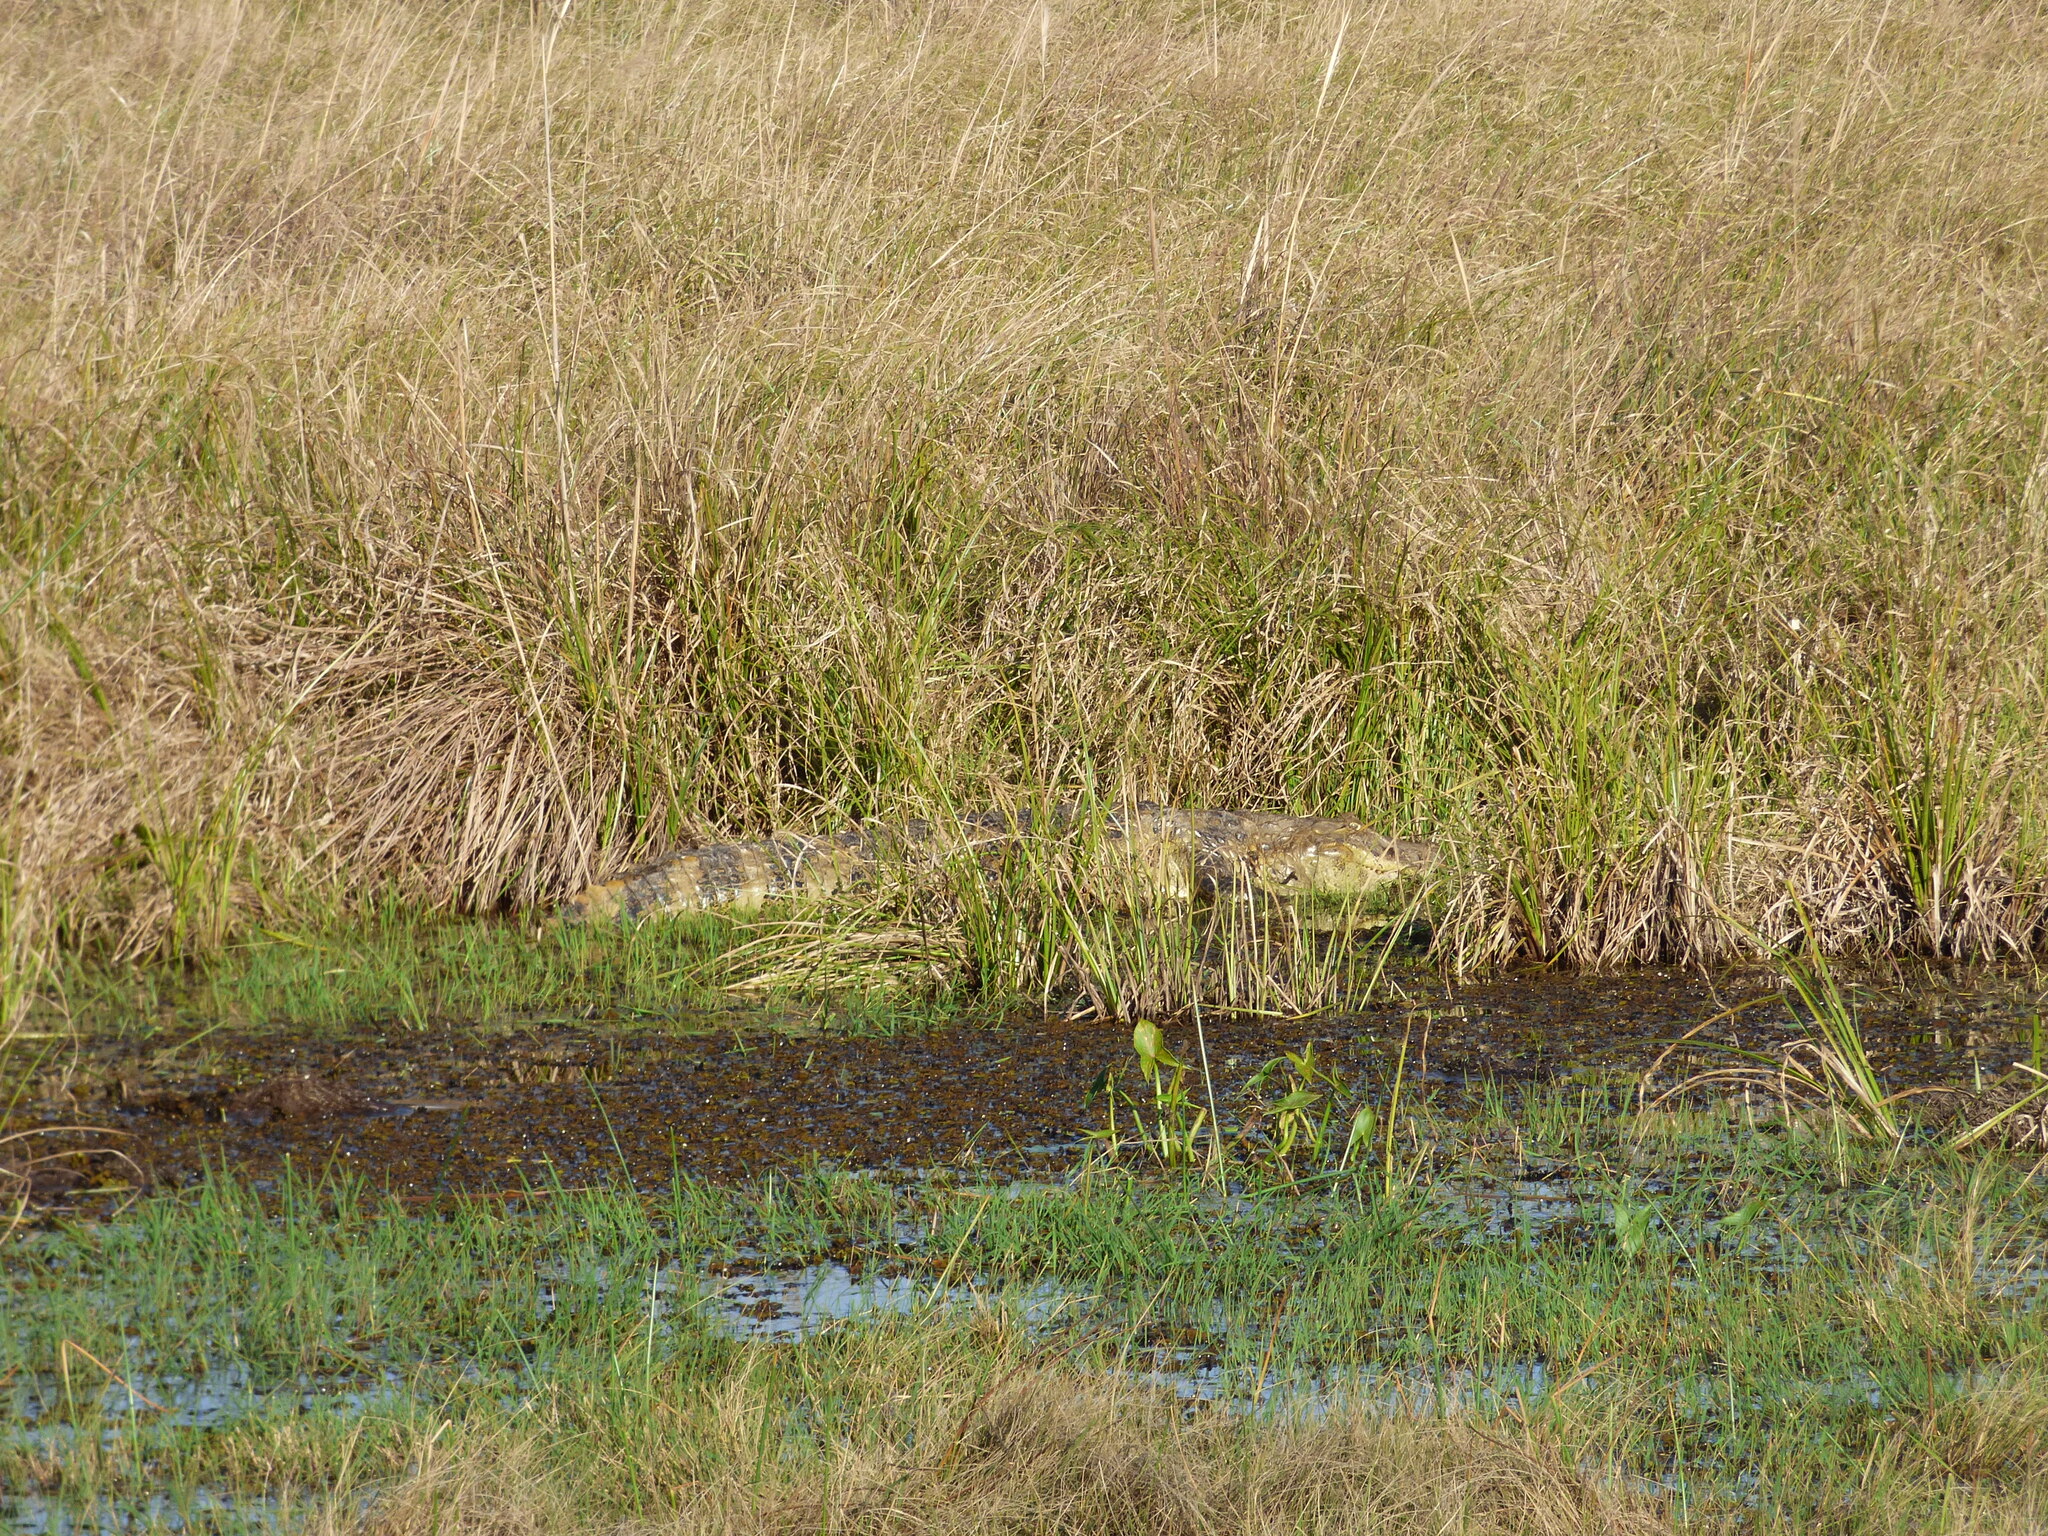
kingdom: Animalia
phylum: Chordata
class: Crocodylia
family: Alligatoridae
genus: Caiman
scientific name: Caiman latirostris
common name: Broad-snouted caiman
